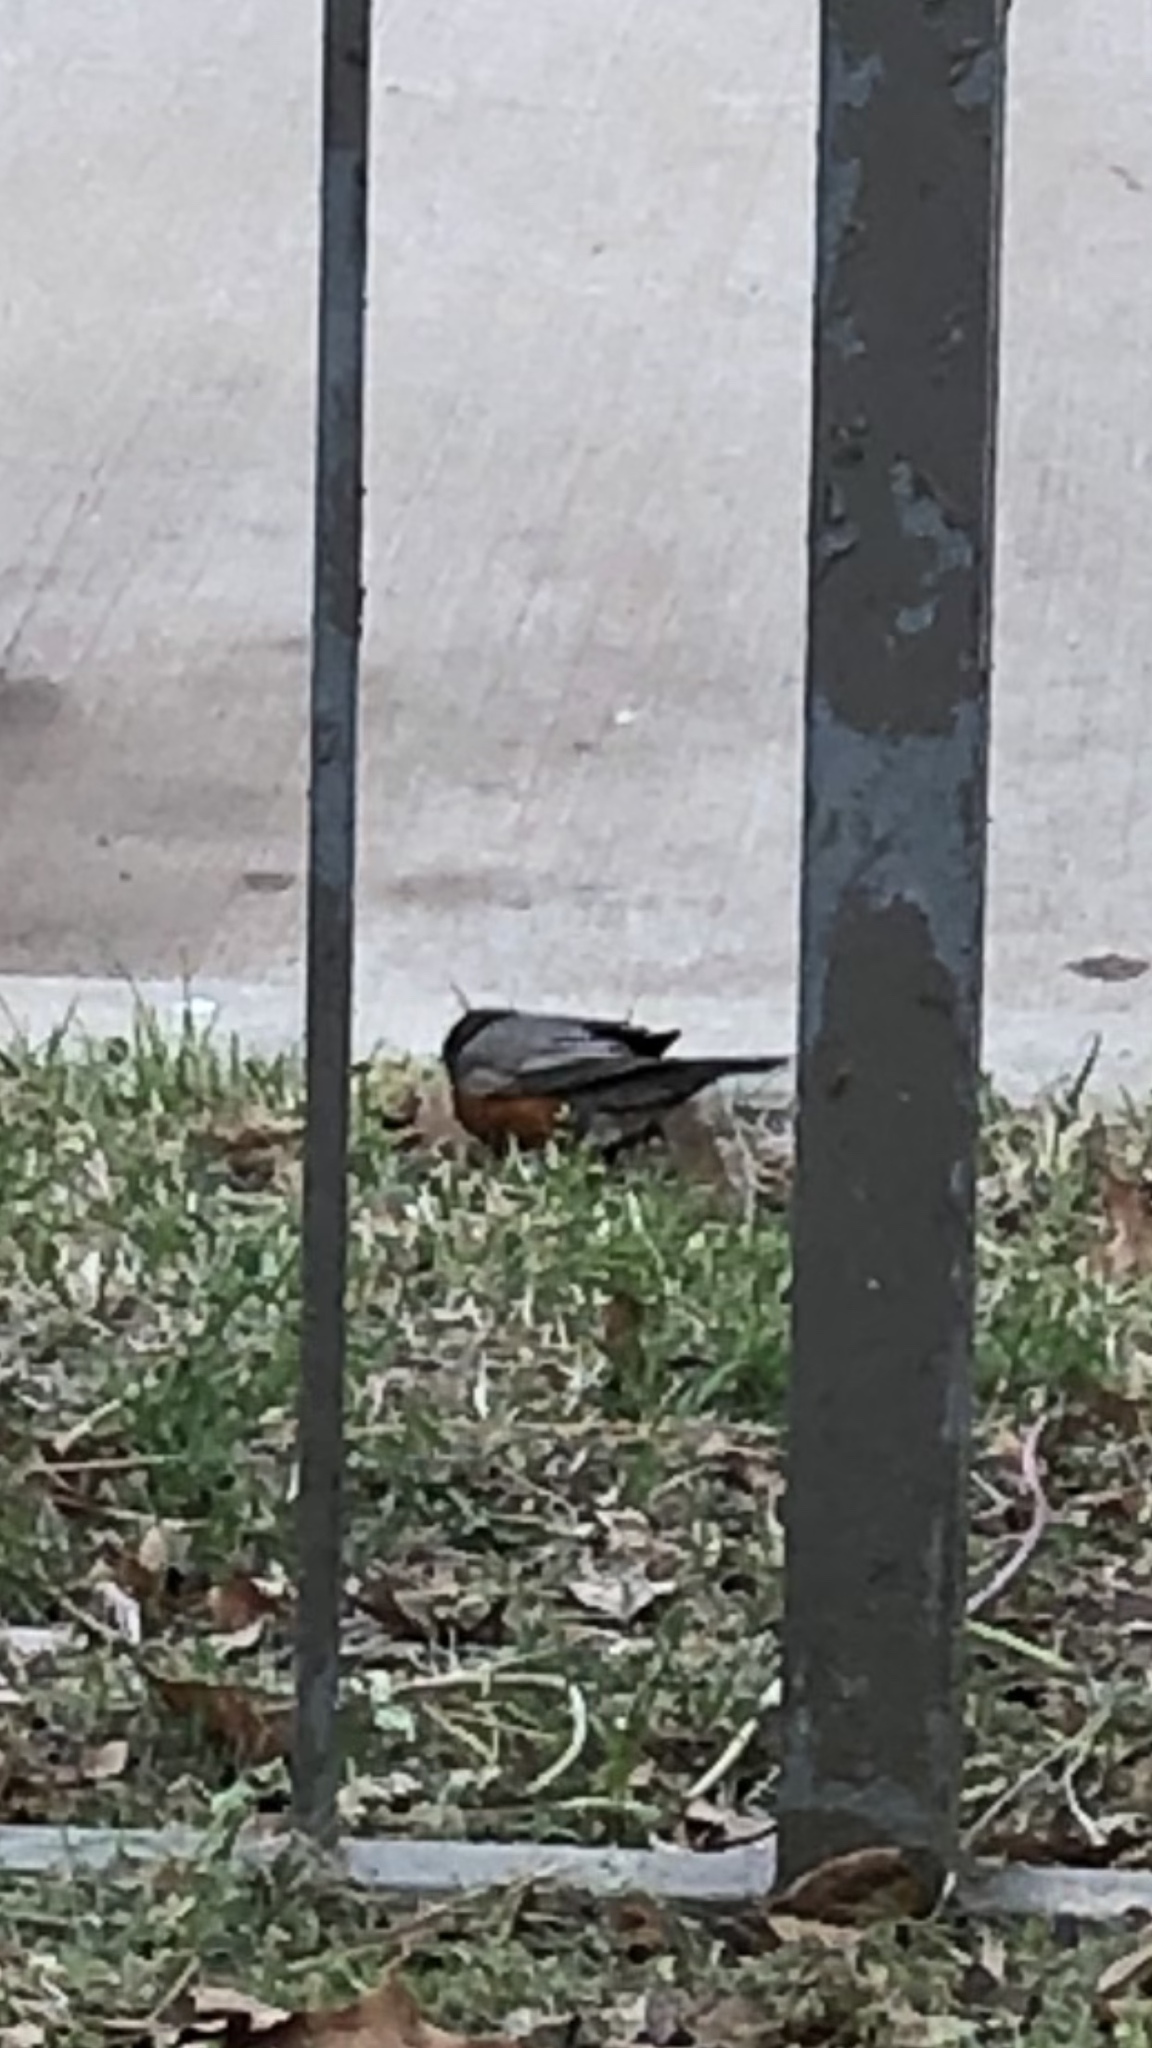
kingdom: Animalia
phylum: Chordata
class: Aves
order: Passeriformes
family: Turdidae
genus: Turdus
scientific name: Turdus migratorius
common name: American robin
